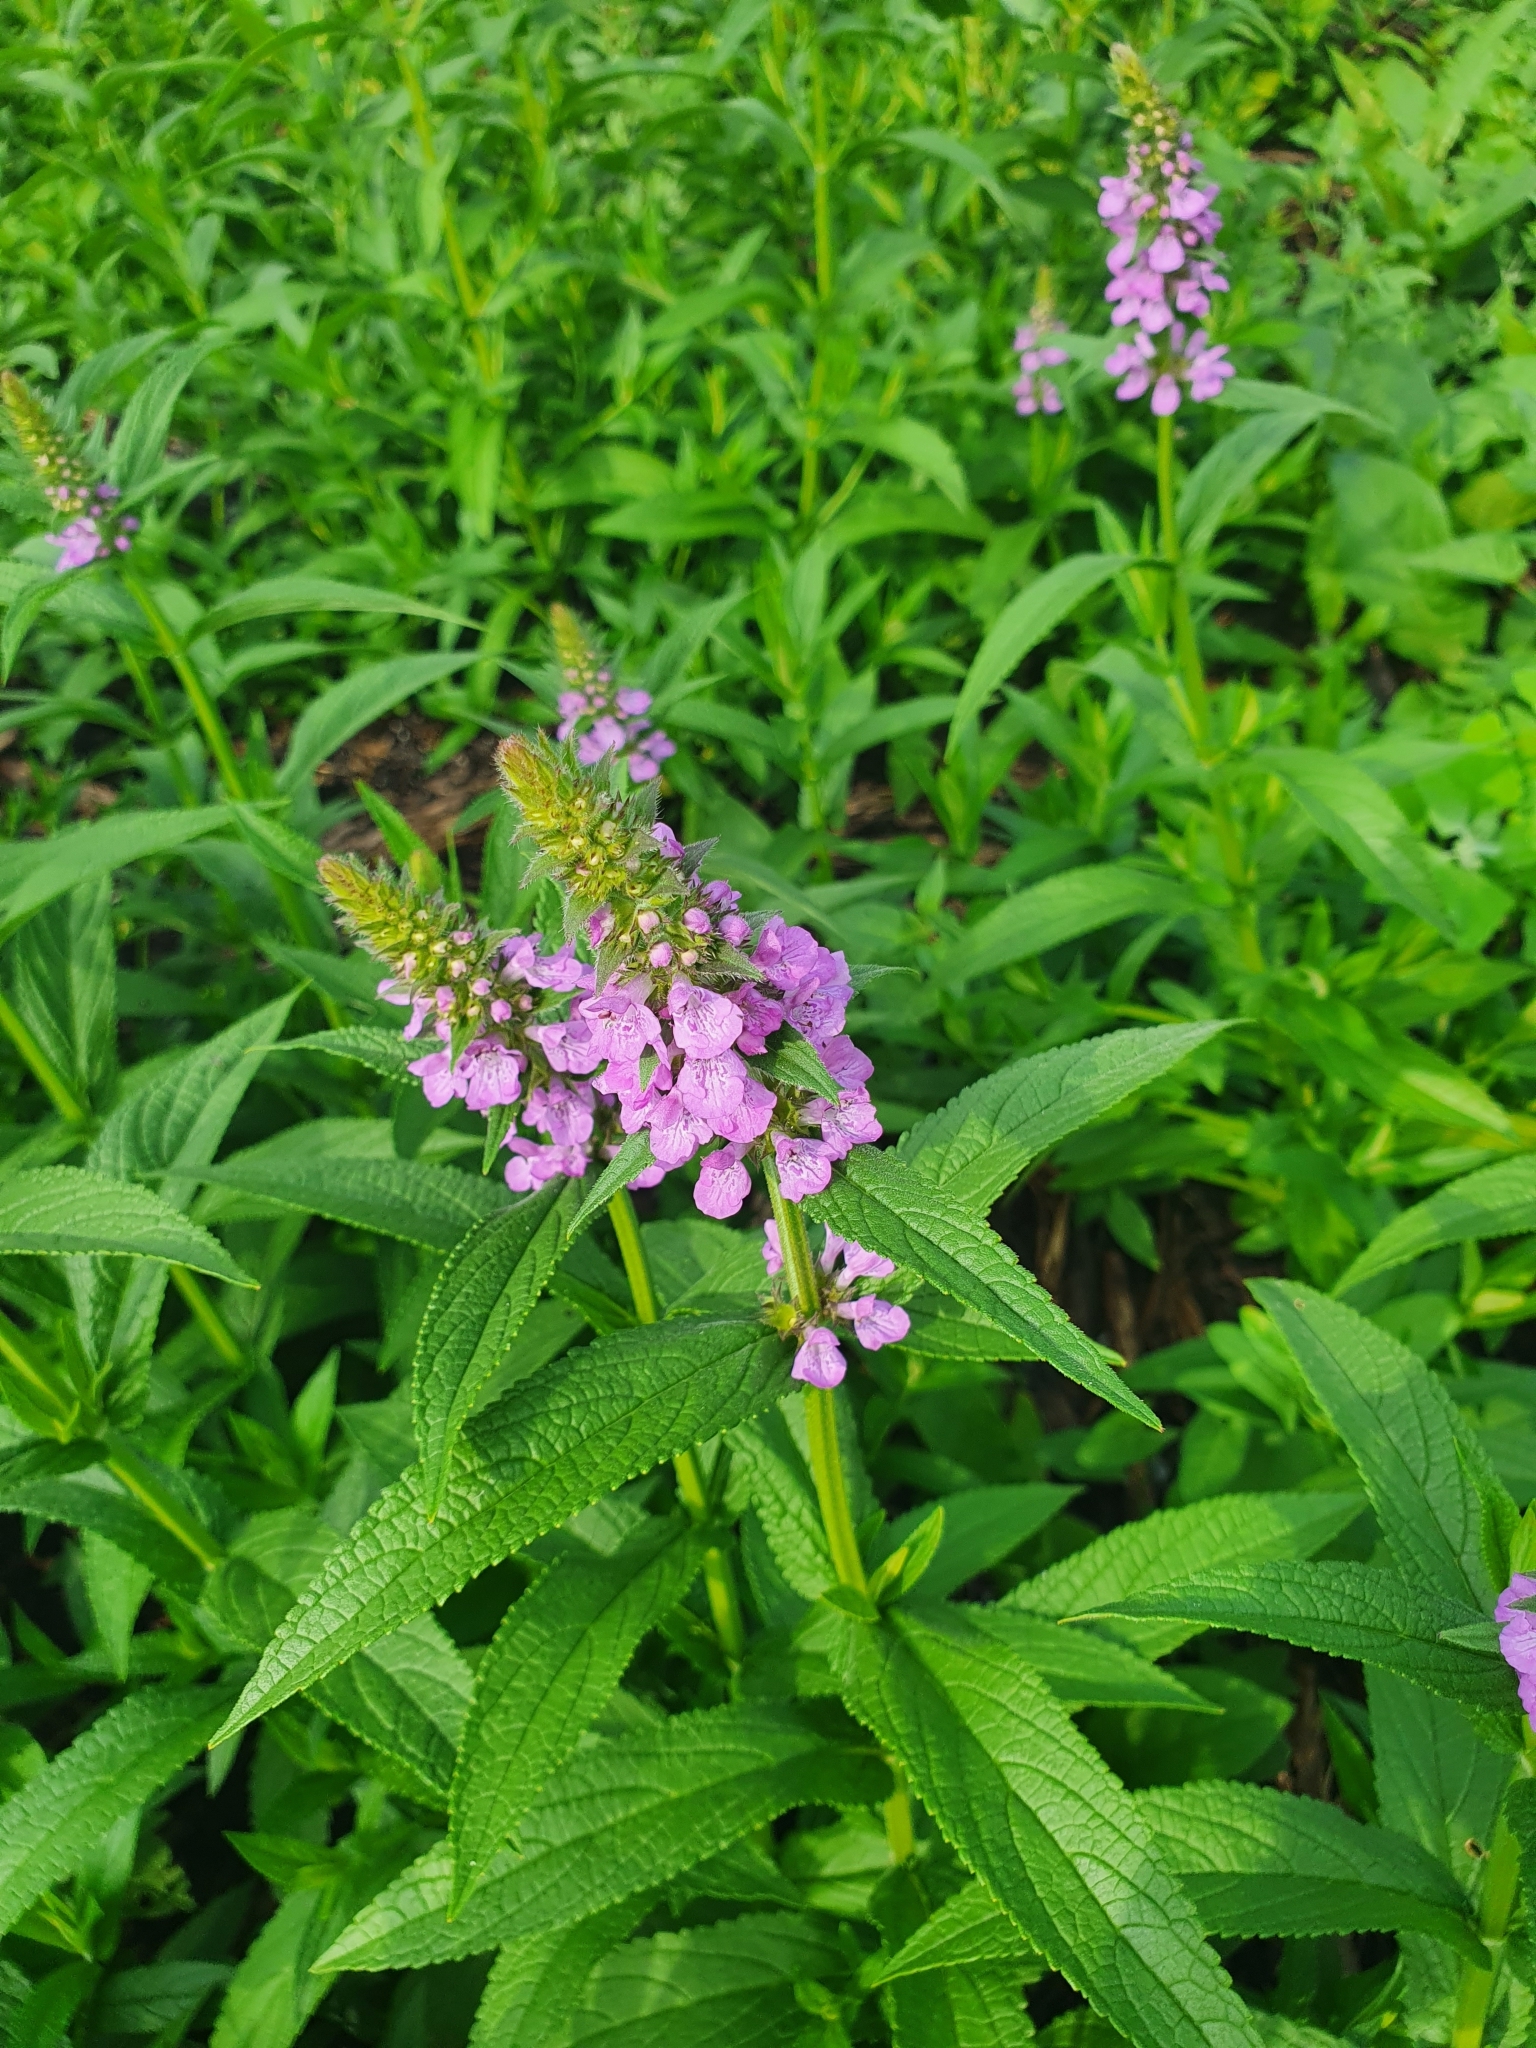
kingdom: Plantae
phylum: Tracheophyta
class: Magnoliopsida
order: Lamiales
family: Lamiaceae
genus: Stachys
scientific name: Stachys palustris
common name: Marsh woundwort
